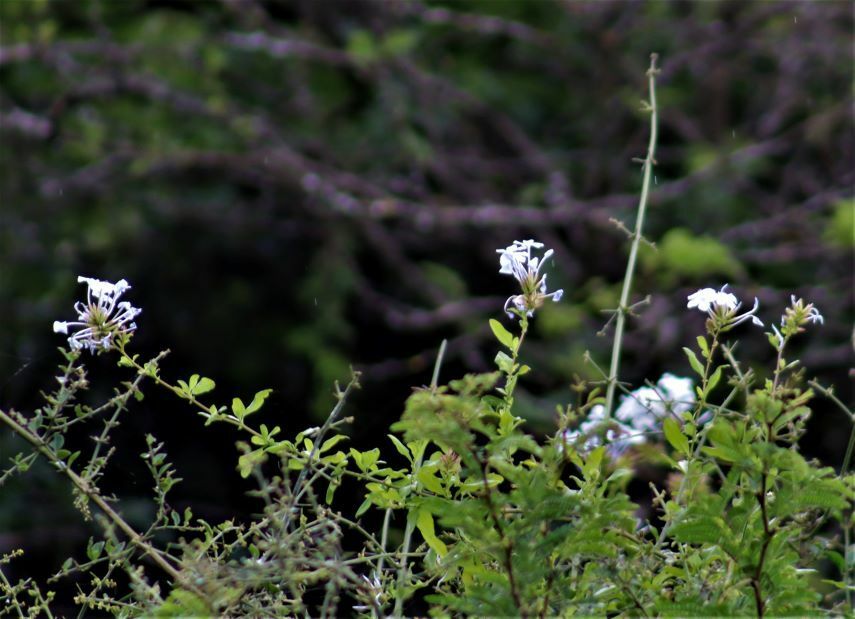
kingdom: Plantae
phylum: Tracheophyta
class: Magnoliopsida
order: Caryophyllales
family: Plumbaginaceae
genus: Plumbago
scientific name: Plumbago auriculata
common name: Cape leadwort
